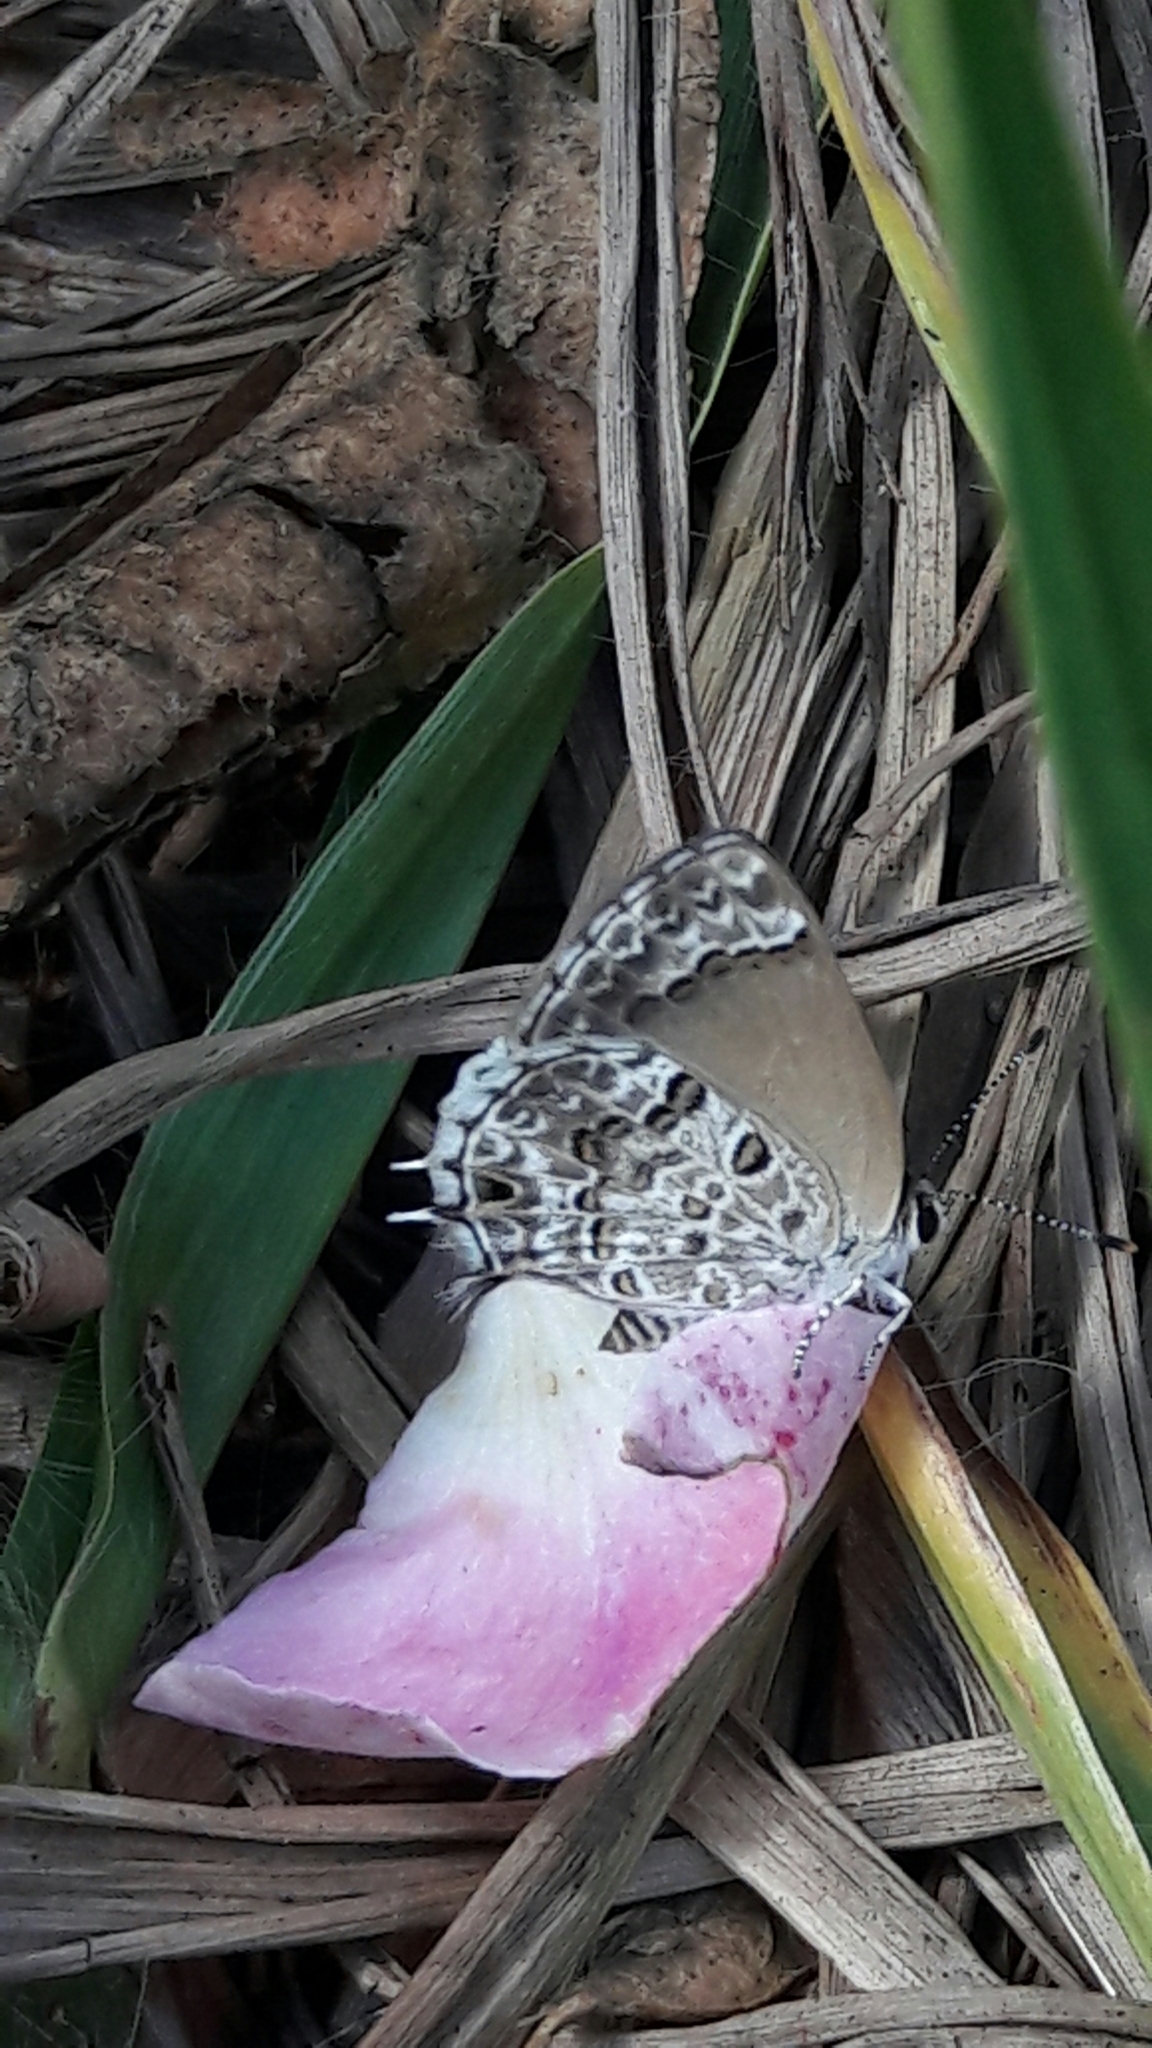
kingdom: Animalia
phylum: Arthropoda
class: Insecta
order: Lepidoptera
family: Lycaenidae
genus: Strymon
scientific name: Strymon astiocha
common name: Gray-spotted scrub-hairstreak
